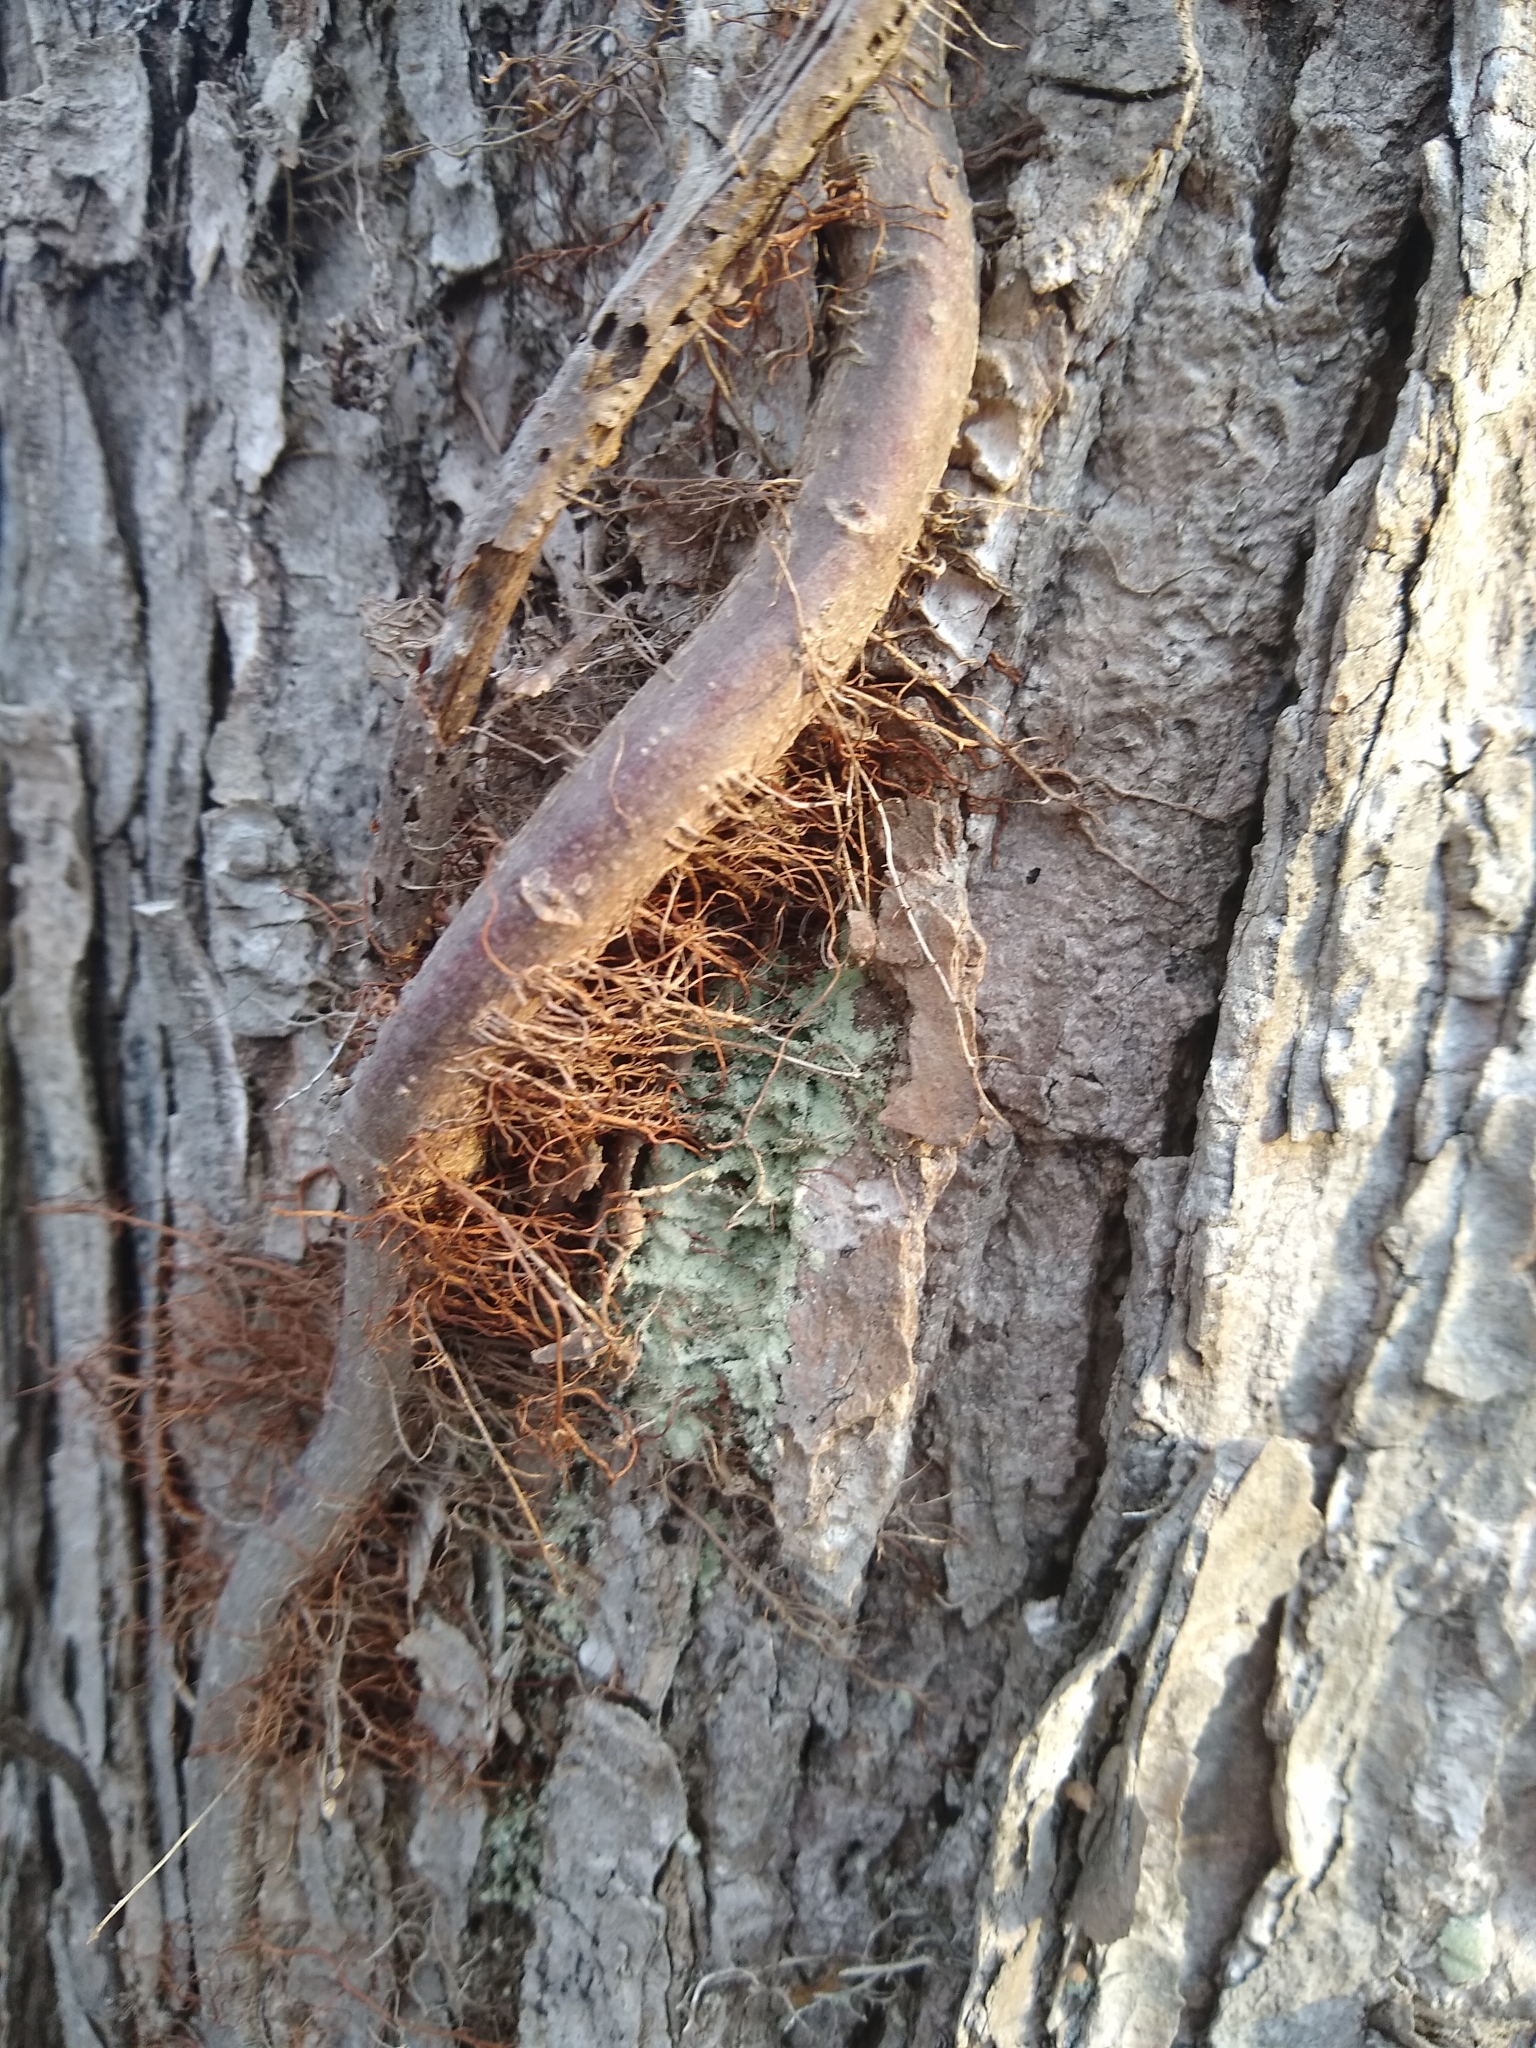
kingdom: Plantae
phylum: Tracheophyta
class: Magnoliopsida
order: Sapindales
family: Anacardiaceae
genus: Toxicodendron
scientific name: Toxicodendron radicans
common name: Poison ivy
